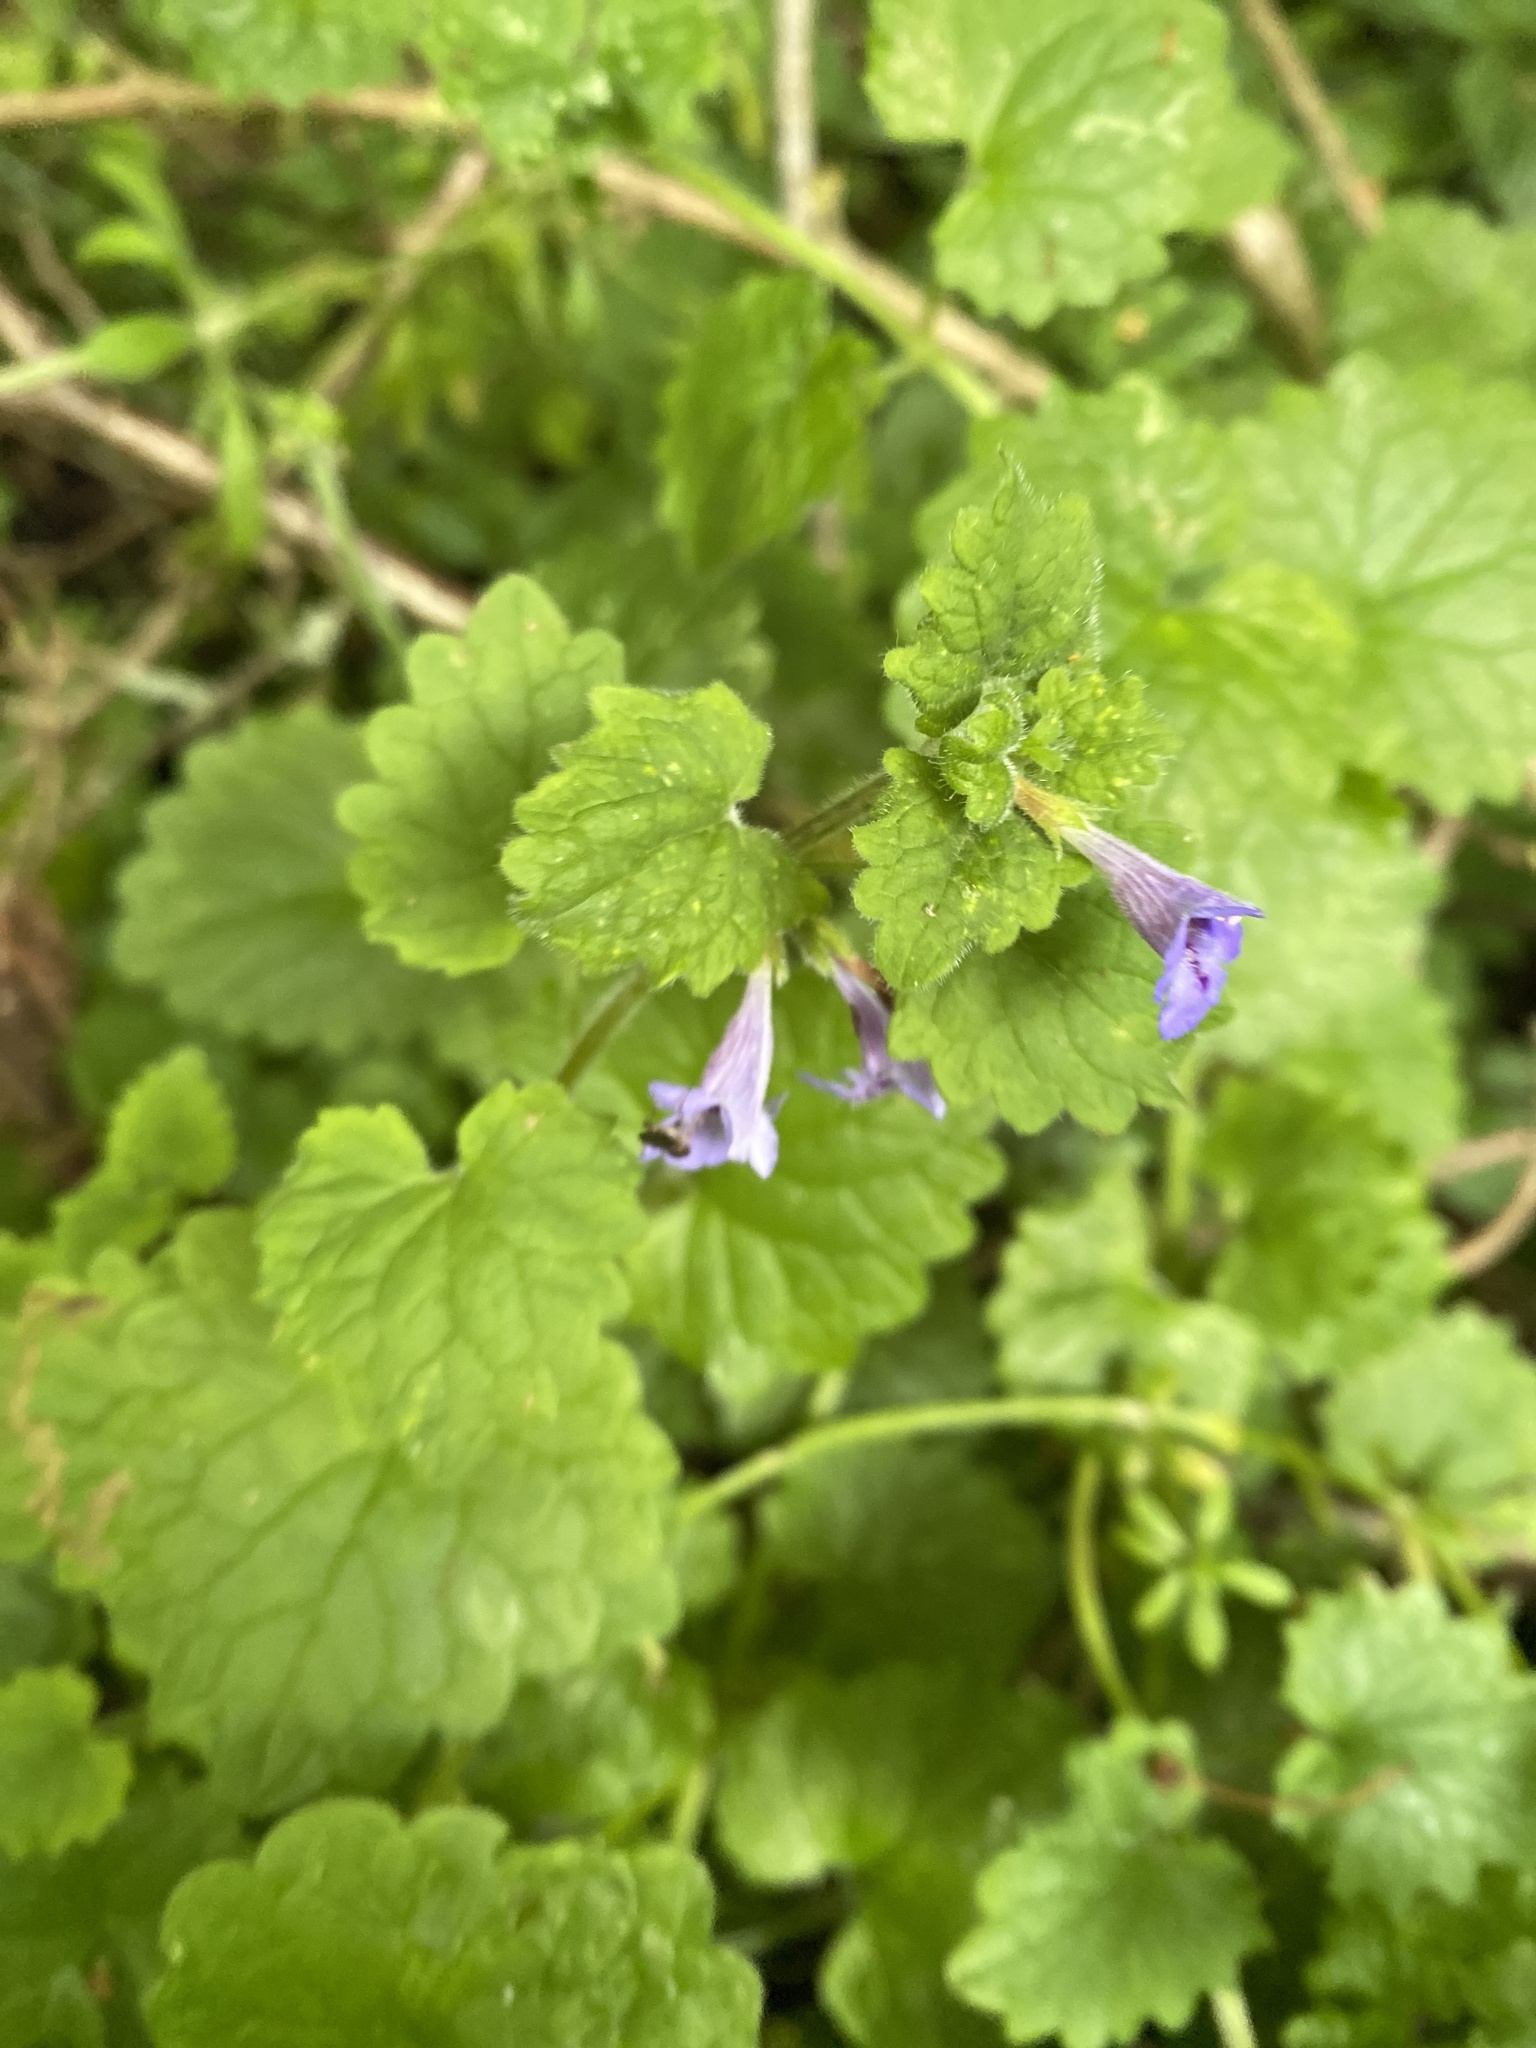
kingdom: Plantae
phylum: Tracheophyta
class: Magnoliopsida
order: Lamiales
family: Lamiaceae
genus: Glechoma
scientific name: Glechoma hederacea
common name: Ground ivy
